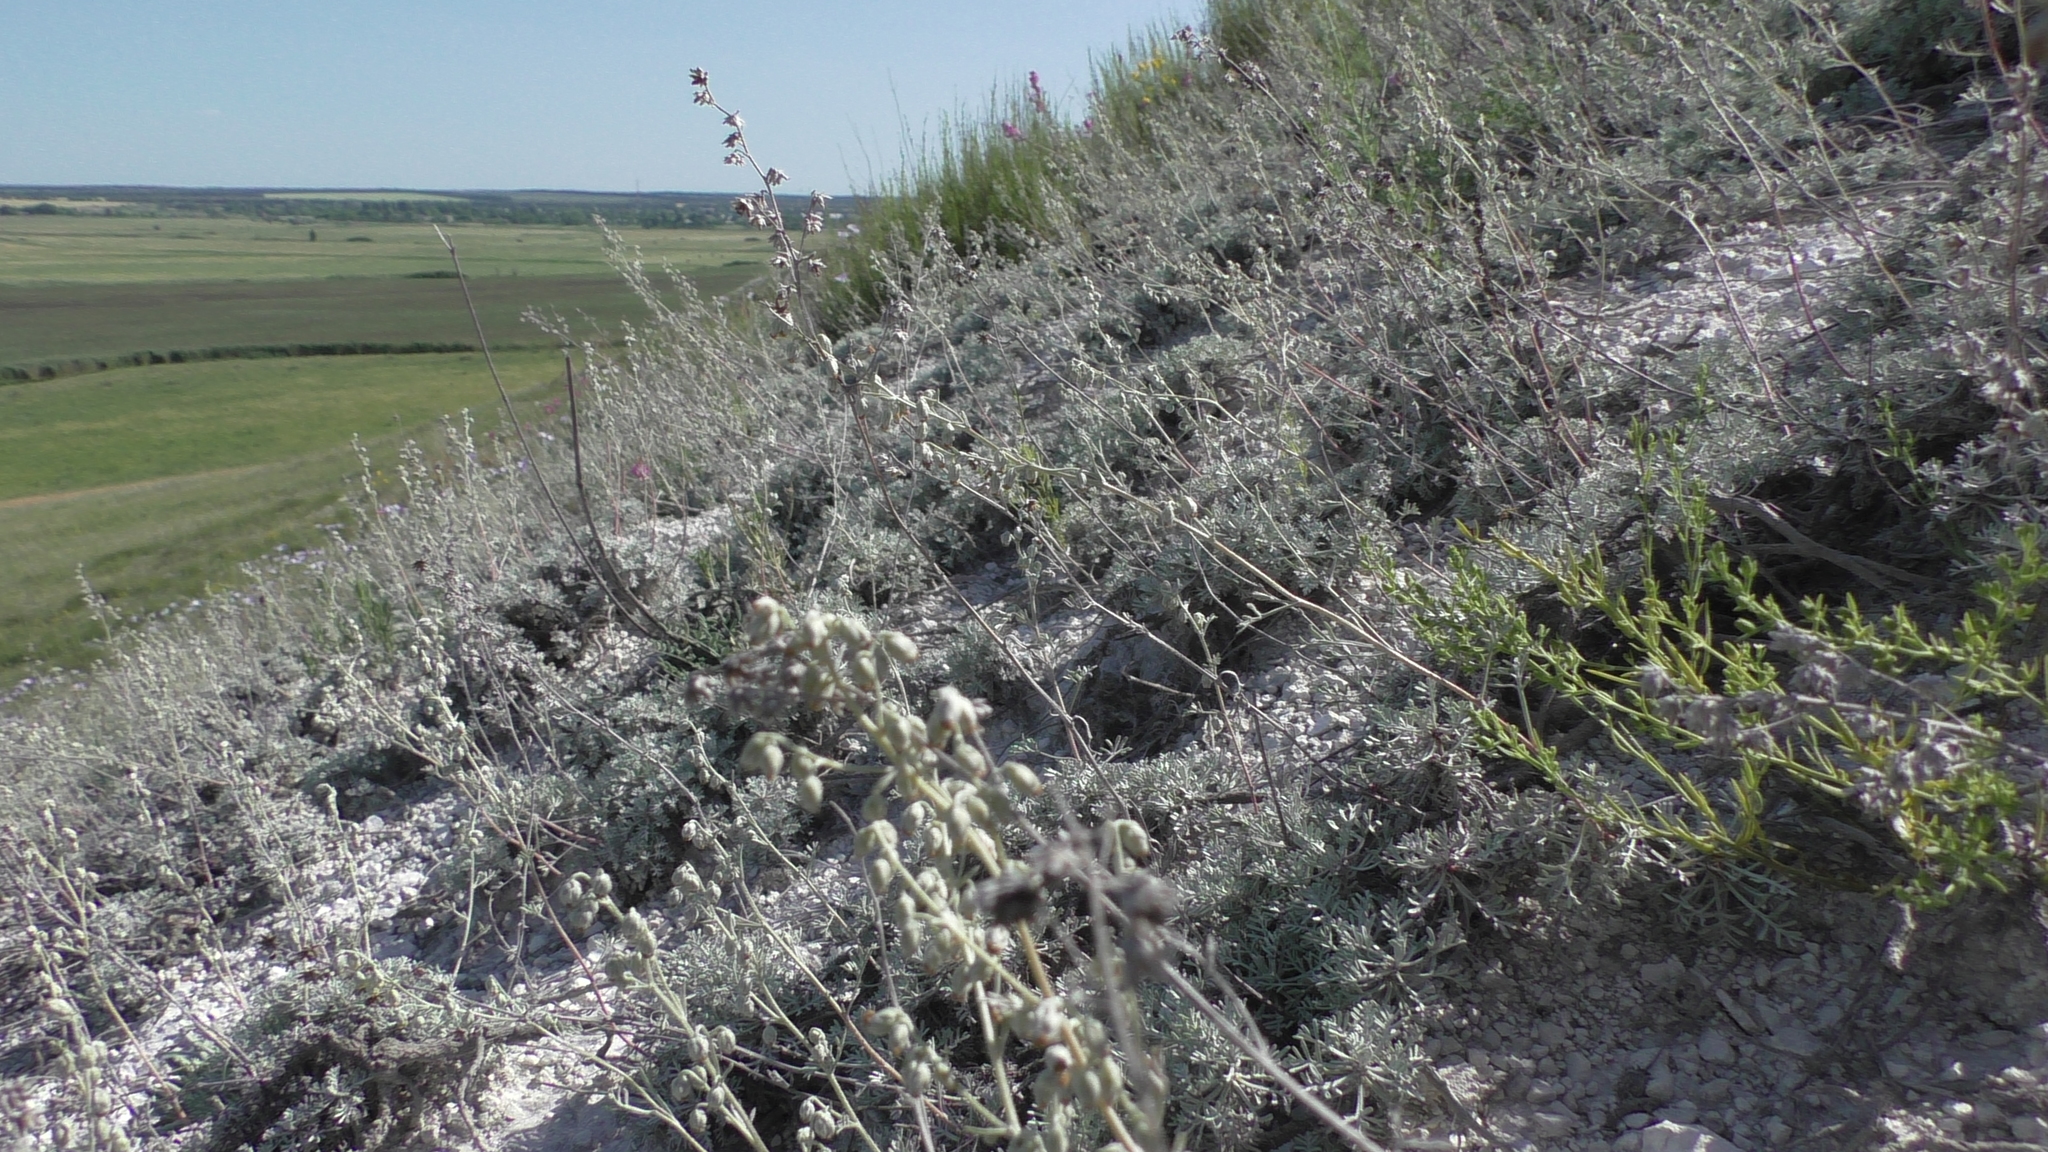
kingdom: Plantae
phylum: Tracheophyta
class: Magnoliopsida
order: Asterales
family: Asteraceae
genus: Artemisia
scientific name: Artemisia hololeuca
